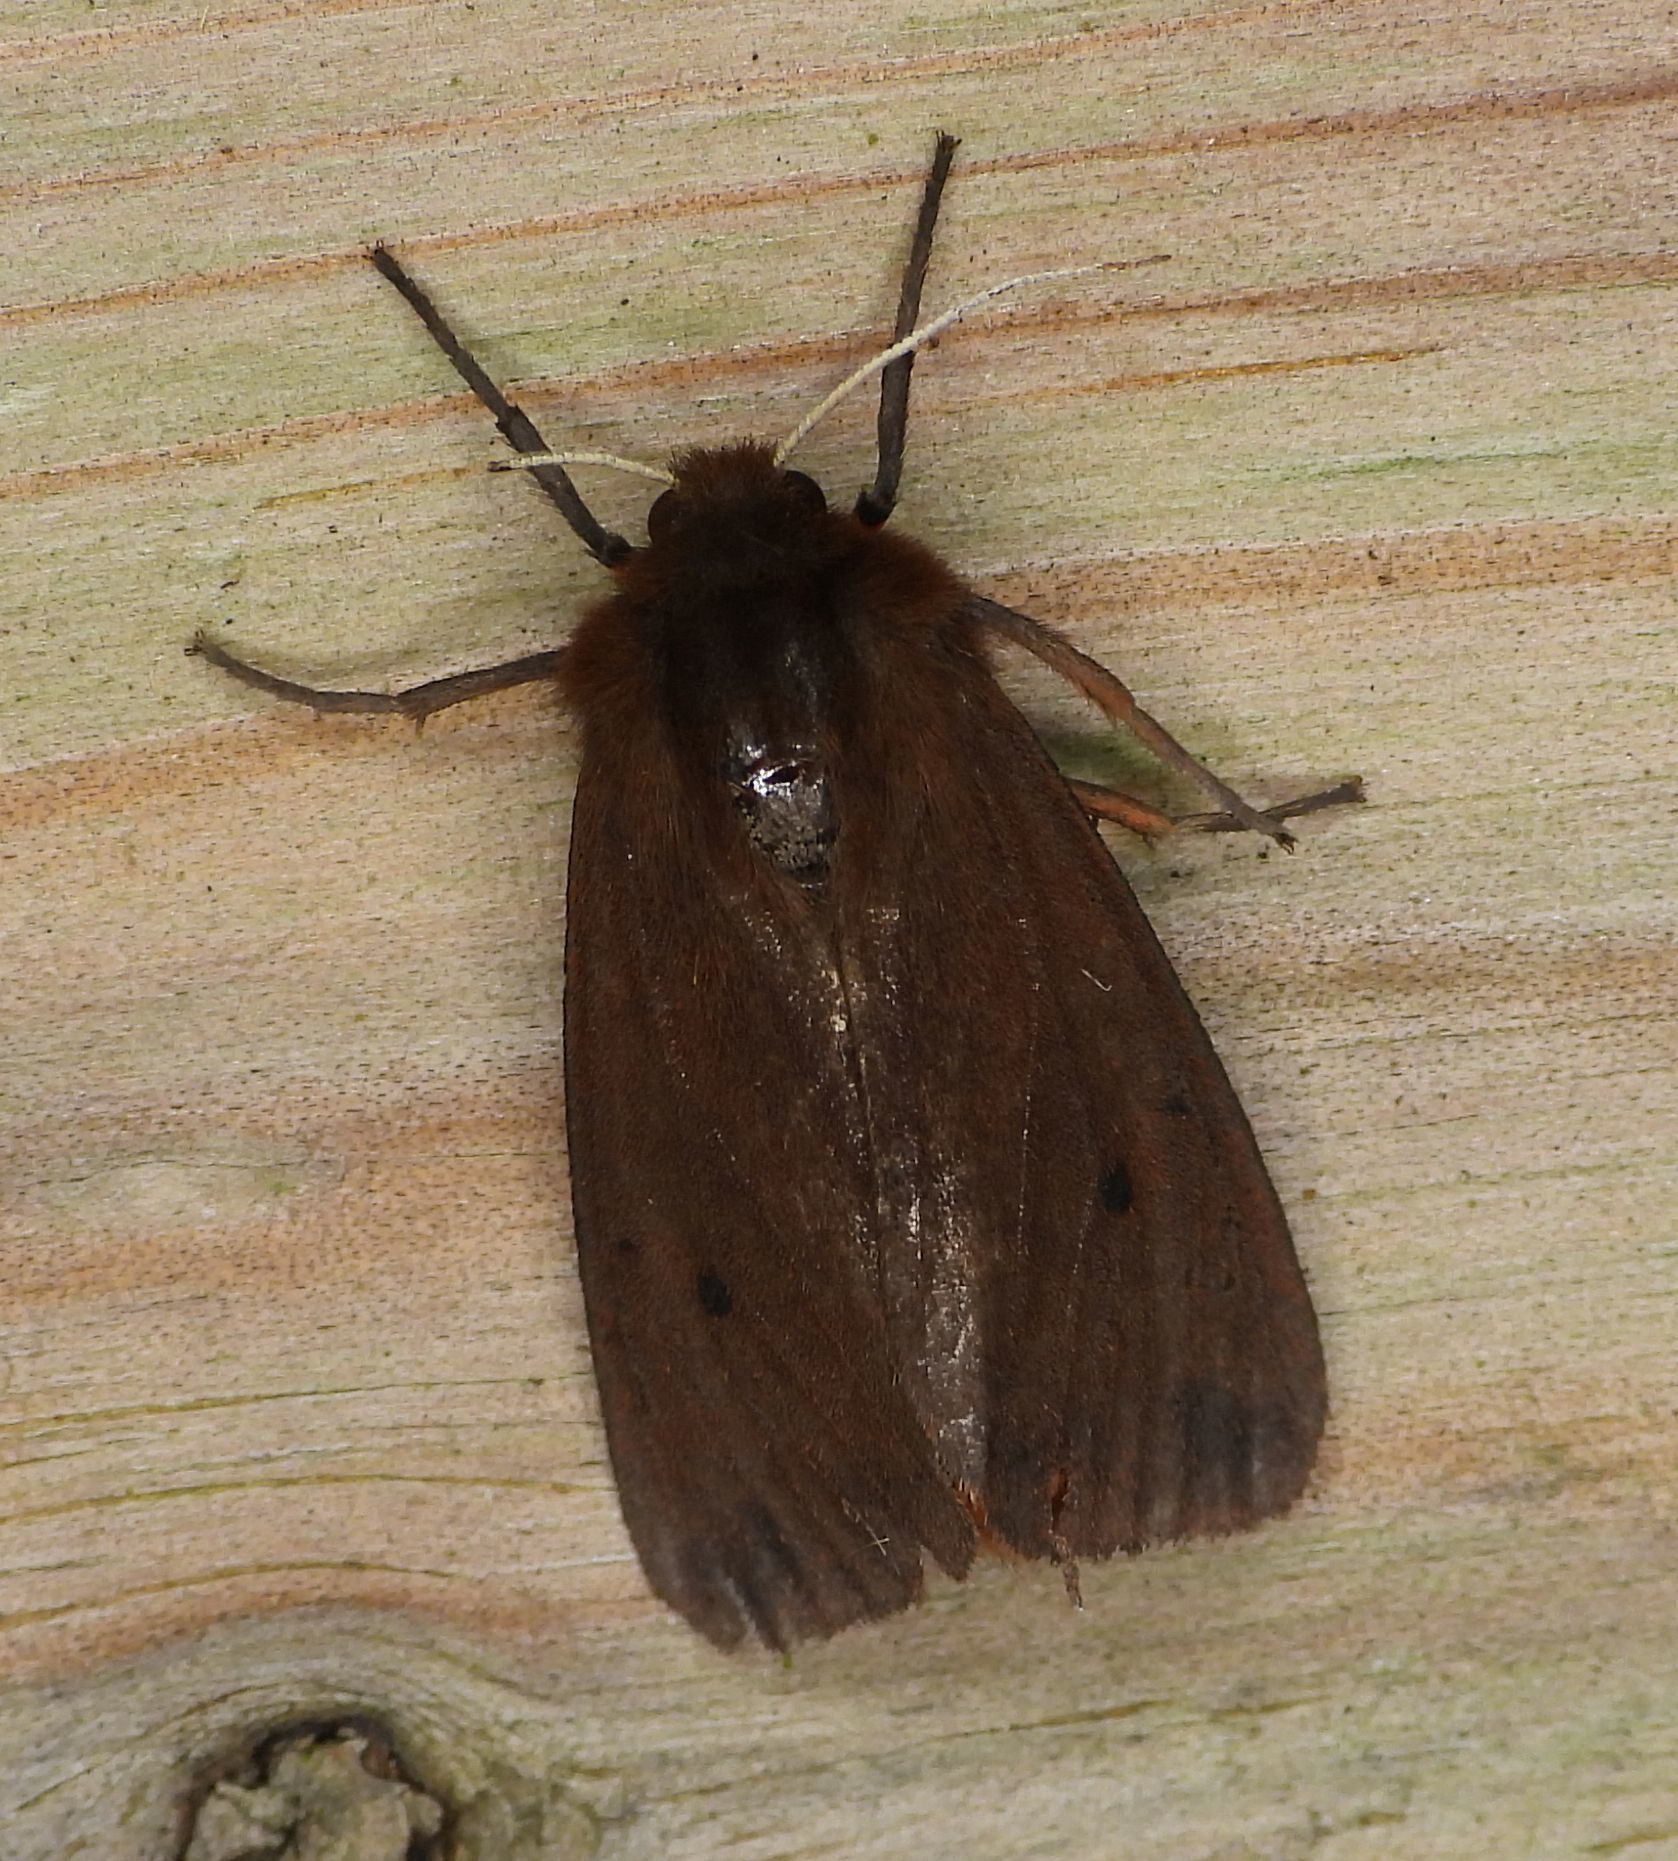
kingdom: Animalia
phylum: Arthropoda
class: Insecta
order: Lepidoptera
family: Erebidae
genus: Phragmatobia
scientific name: Phragmatobia fuliginosa
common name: Ruby tiger
